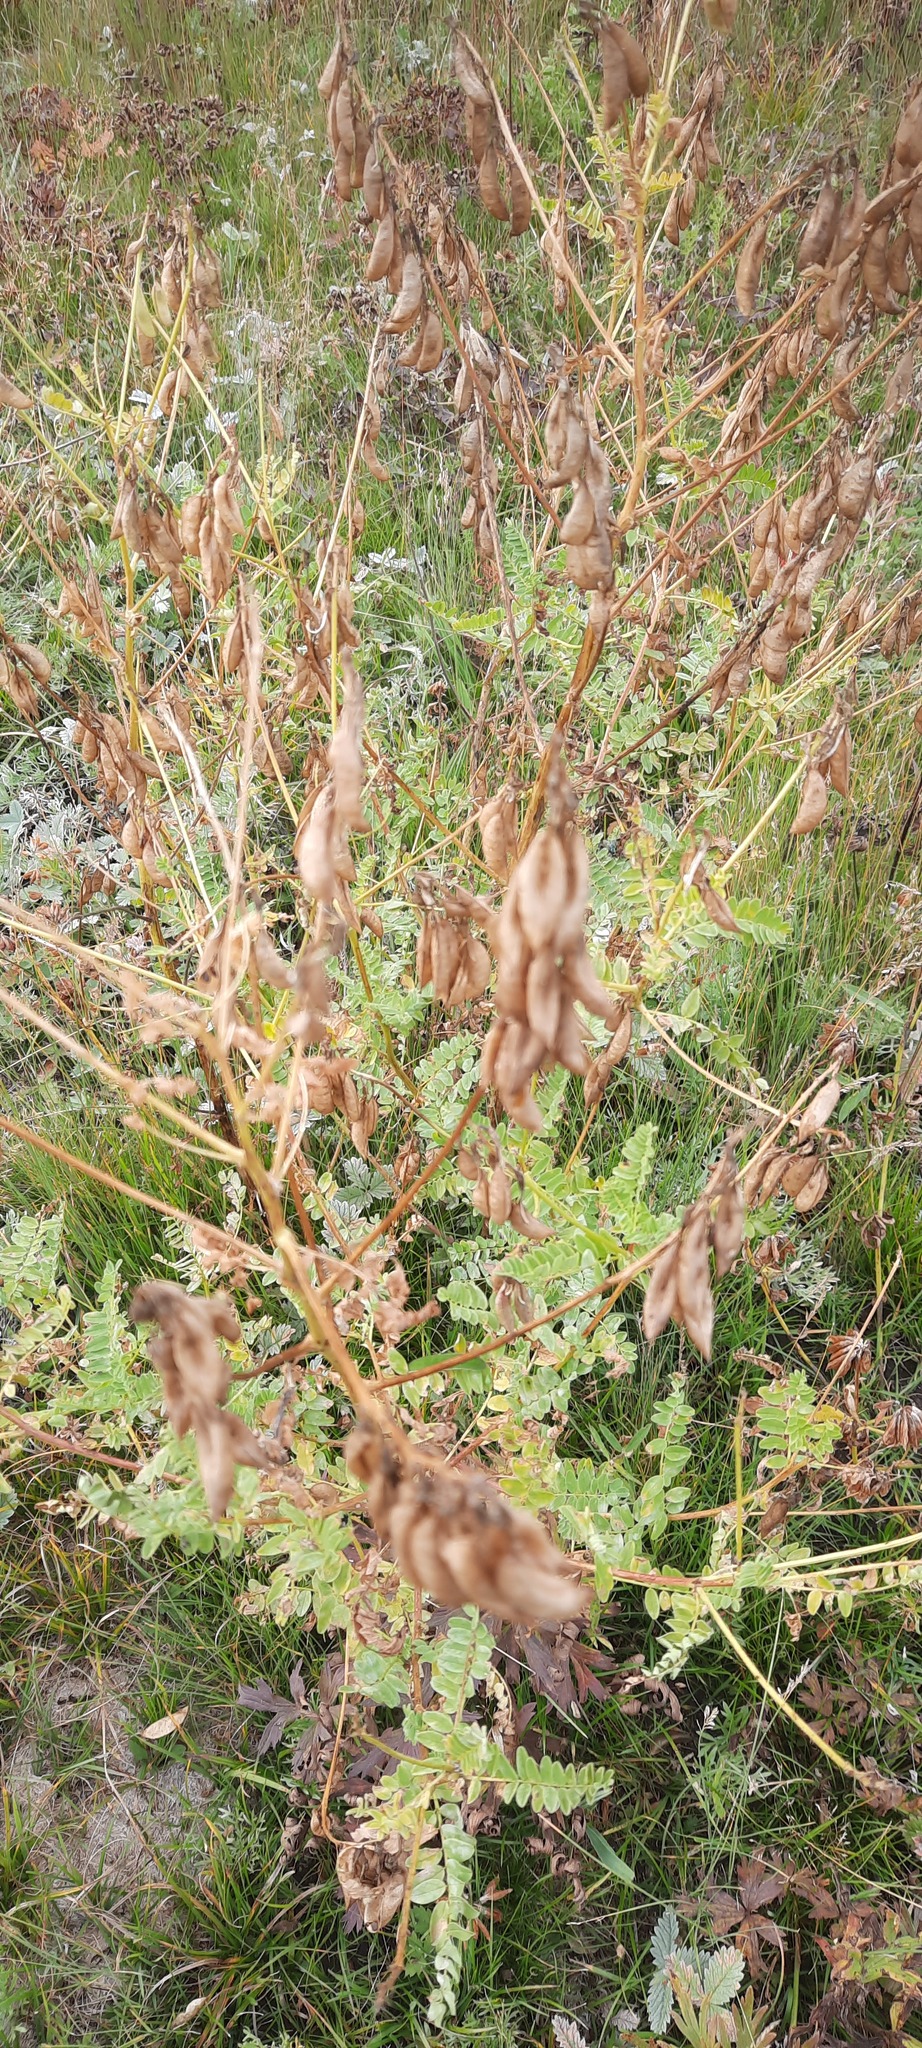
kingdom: Plantae
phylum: Tracheophyta
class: Magnoliopsida
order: Fabales
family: Fabaceae
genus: Astragalus
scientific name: Astragalus mongholicus
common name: Membranous milk-vetch
